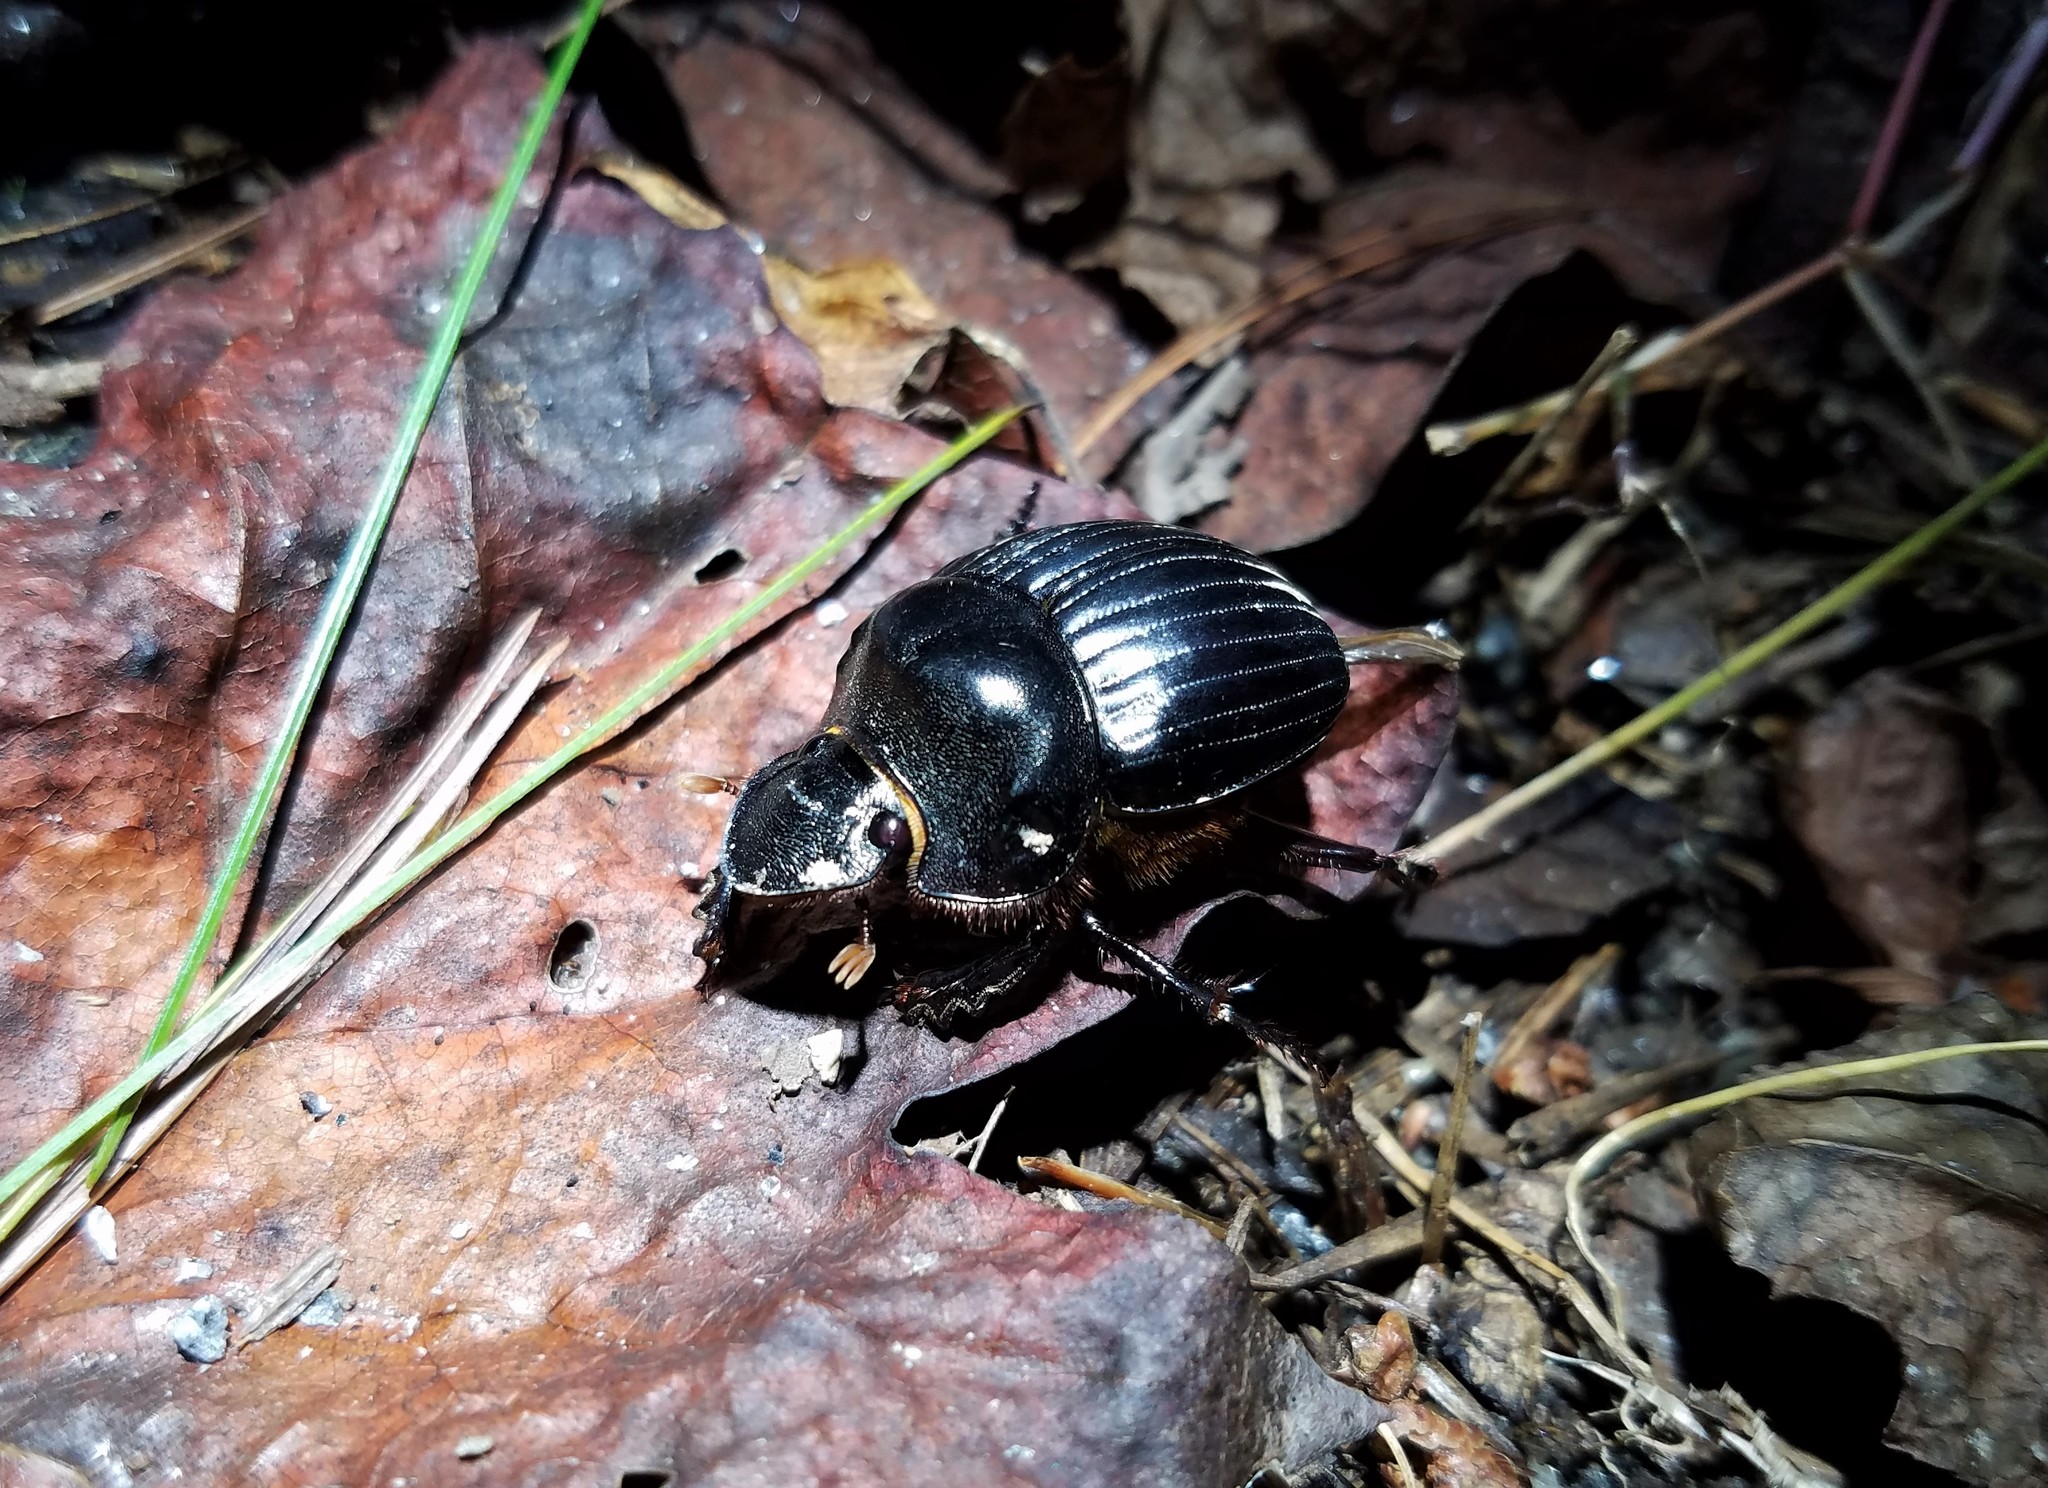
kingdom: Animalia
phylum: Arthropoda
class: Insecta
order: Coleoptera
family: Scarabaeidae
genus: Dichotomius
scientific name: Dichotomius carolinus
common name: Carolina copris
